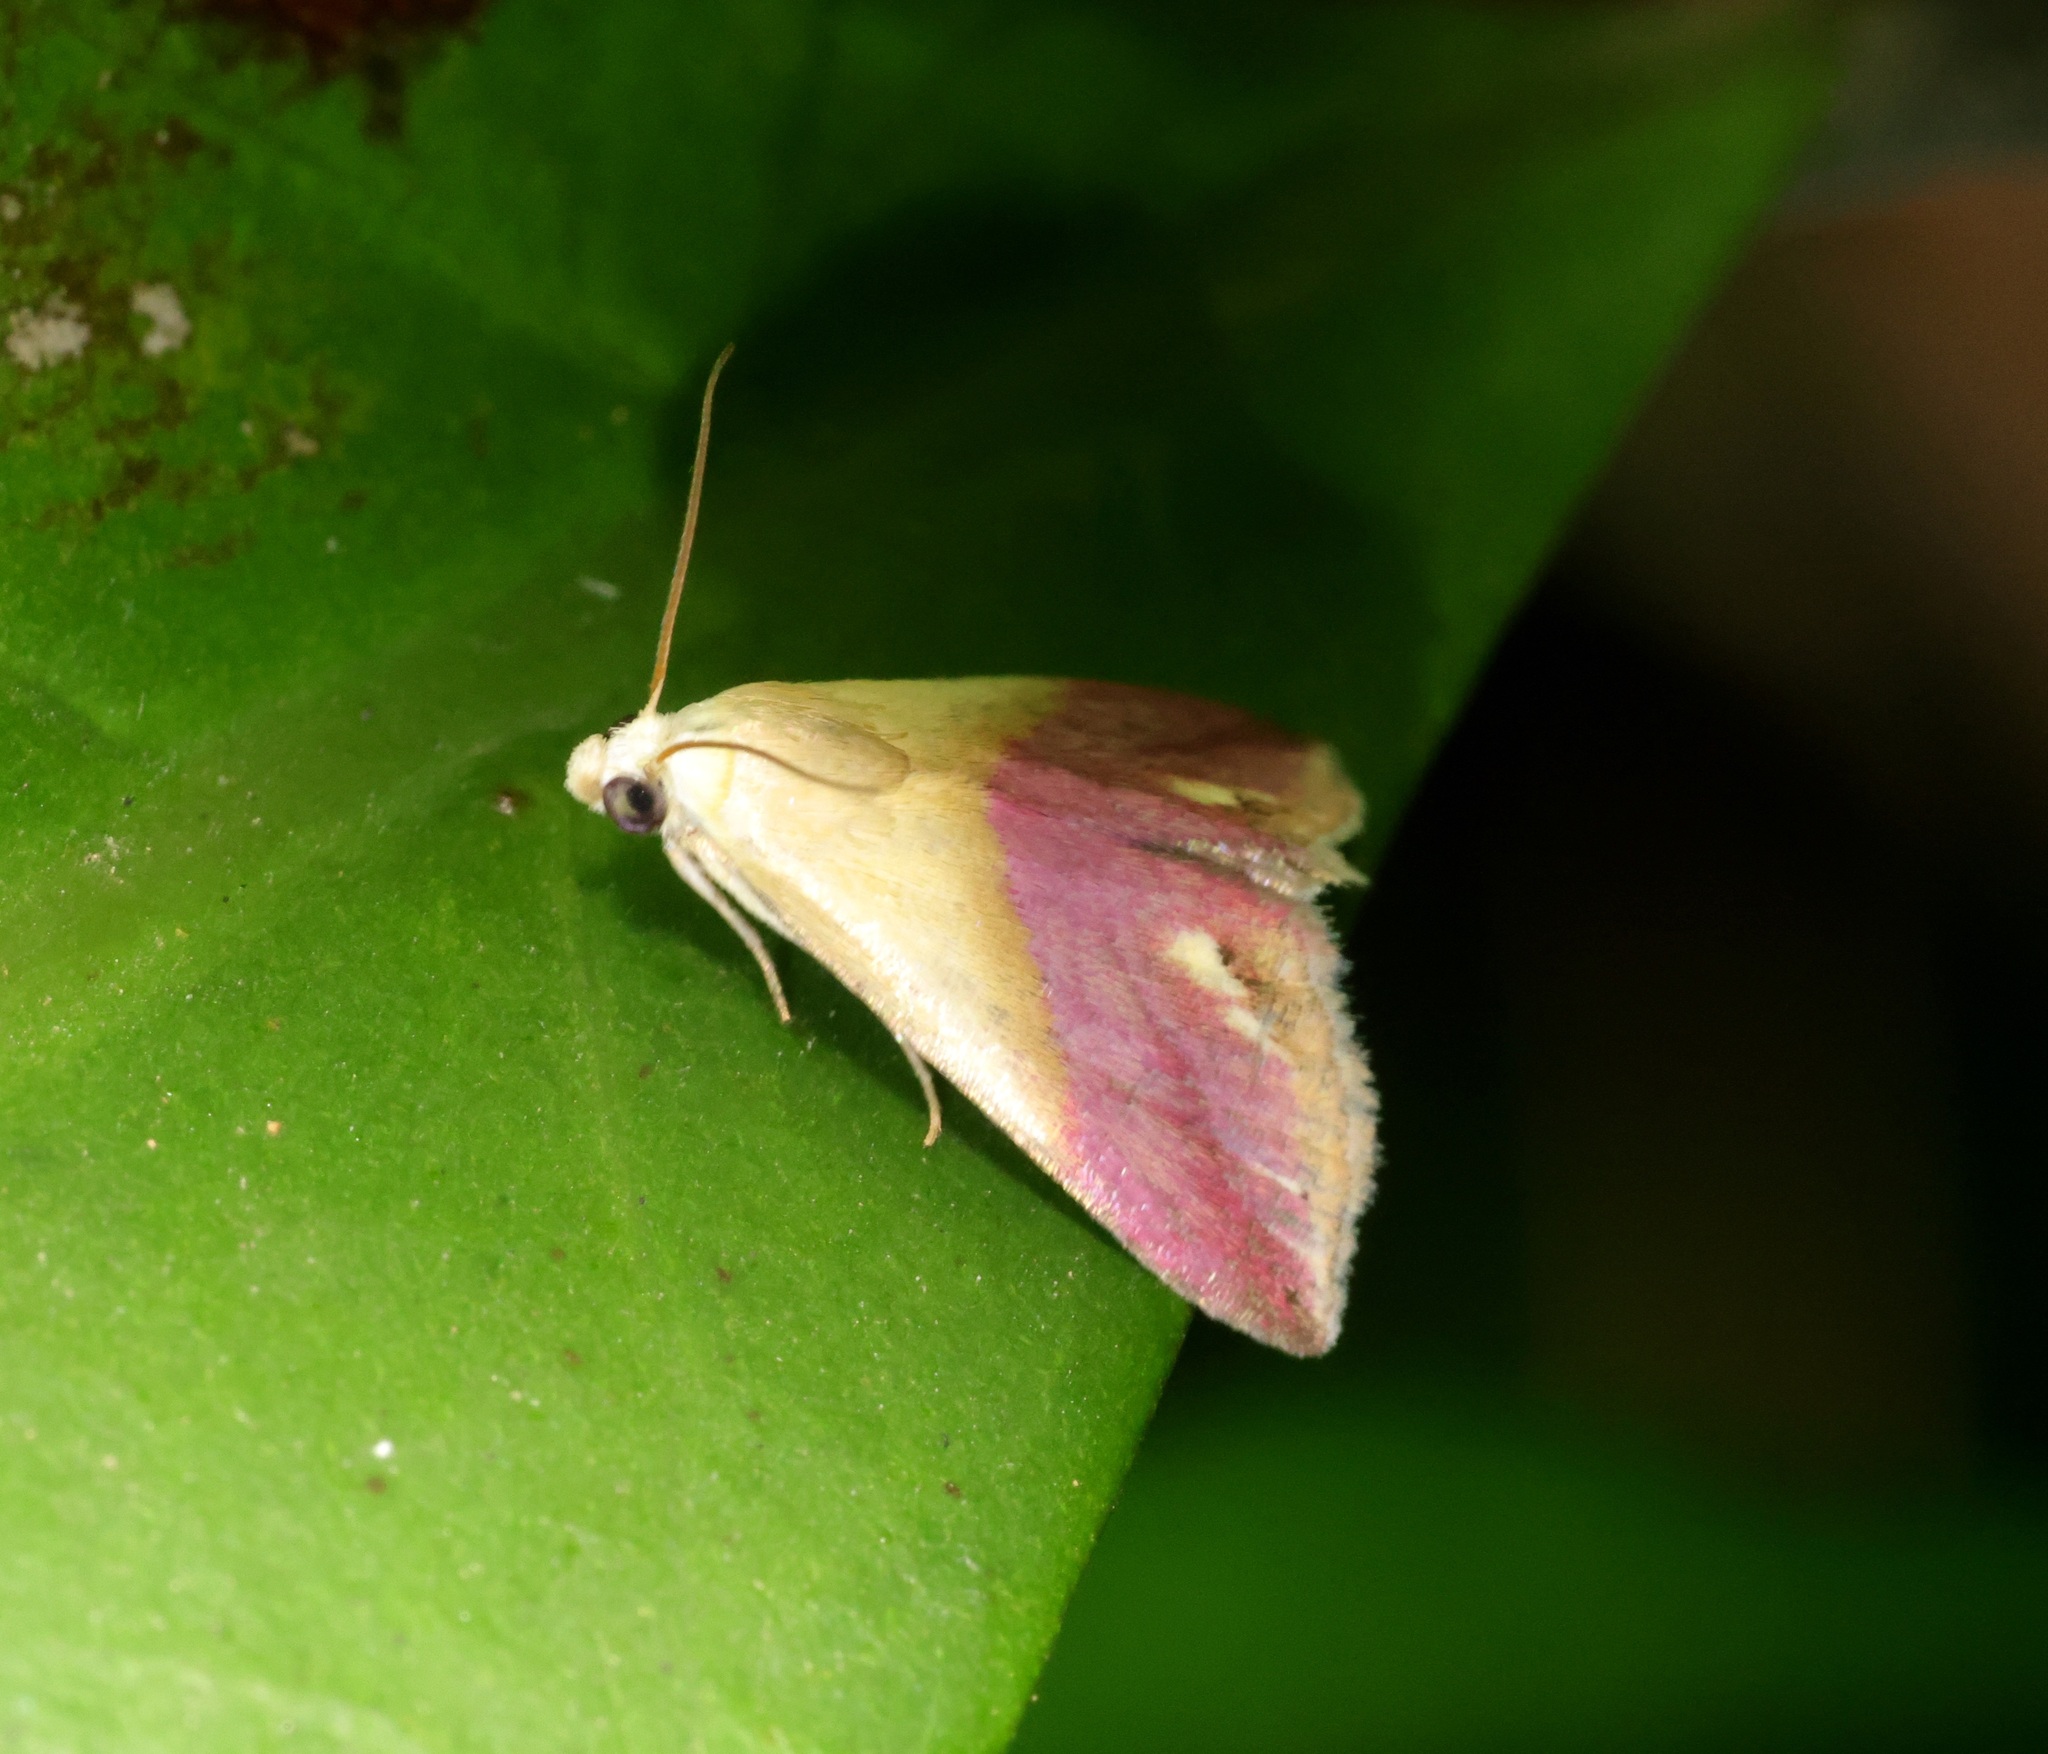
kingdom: Animalia
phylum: Arthropoda
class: Insecta
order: Lepidoptera
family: Noctuidae
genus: Eublemma
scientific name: Eublemma cochylioides
